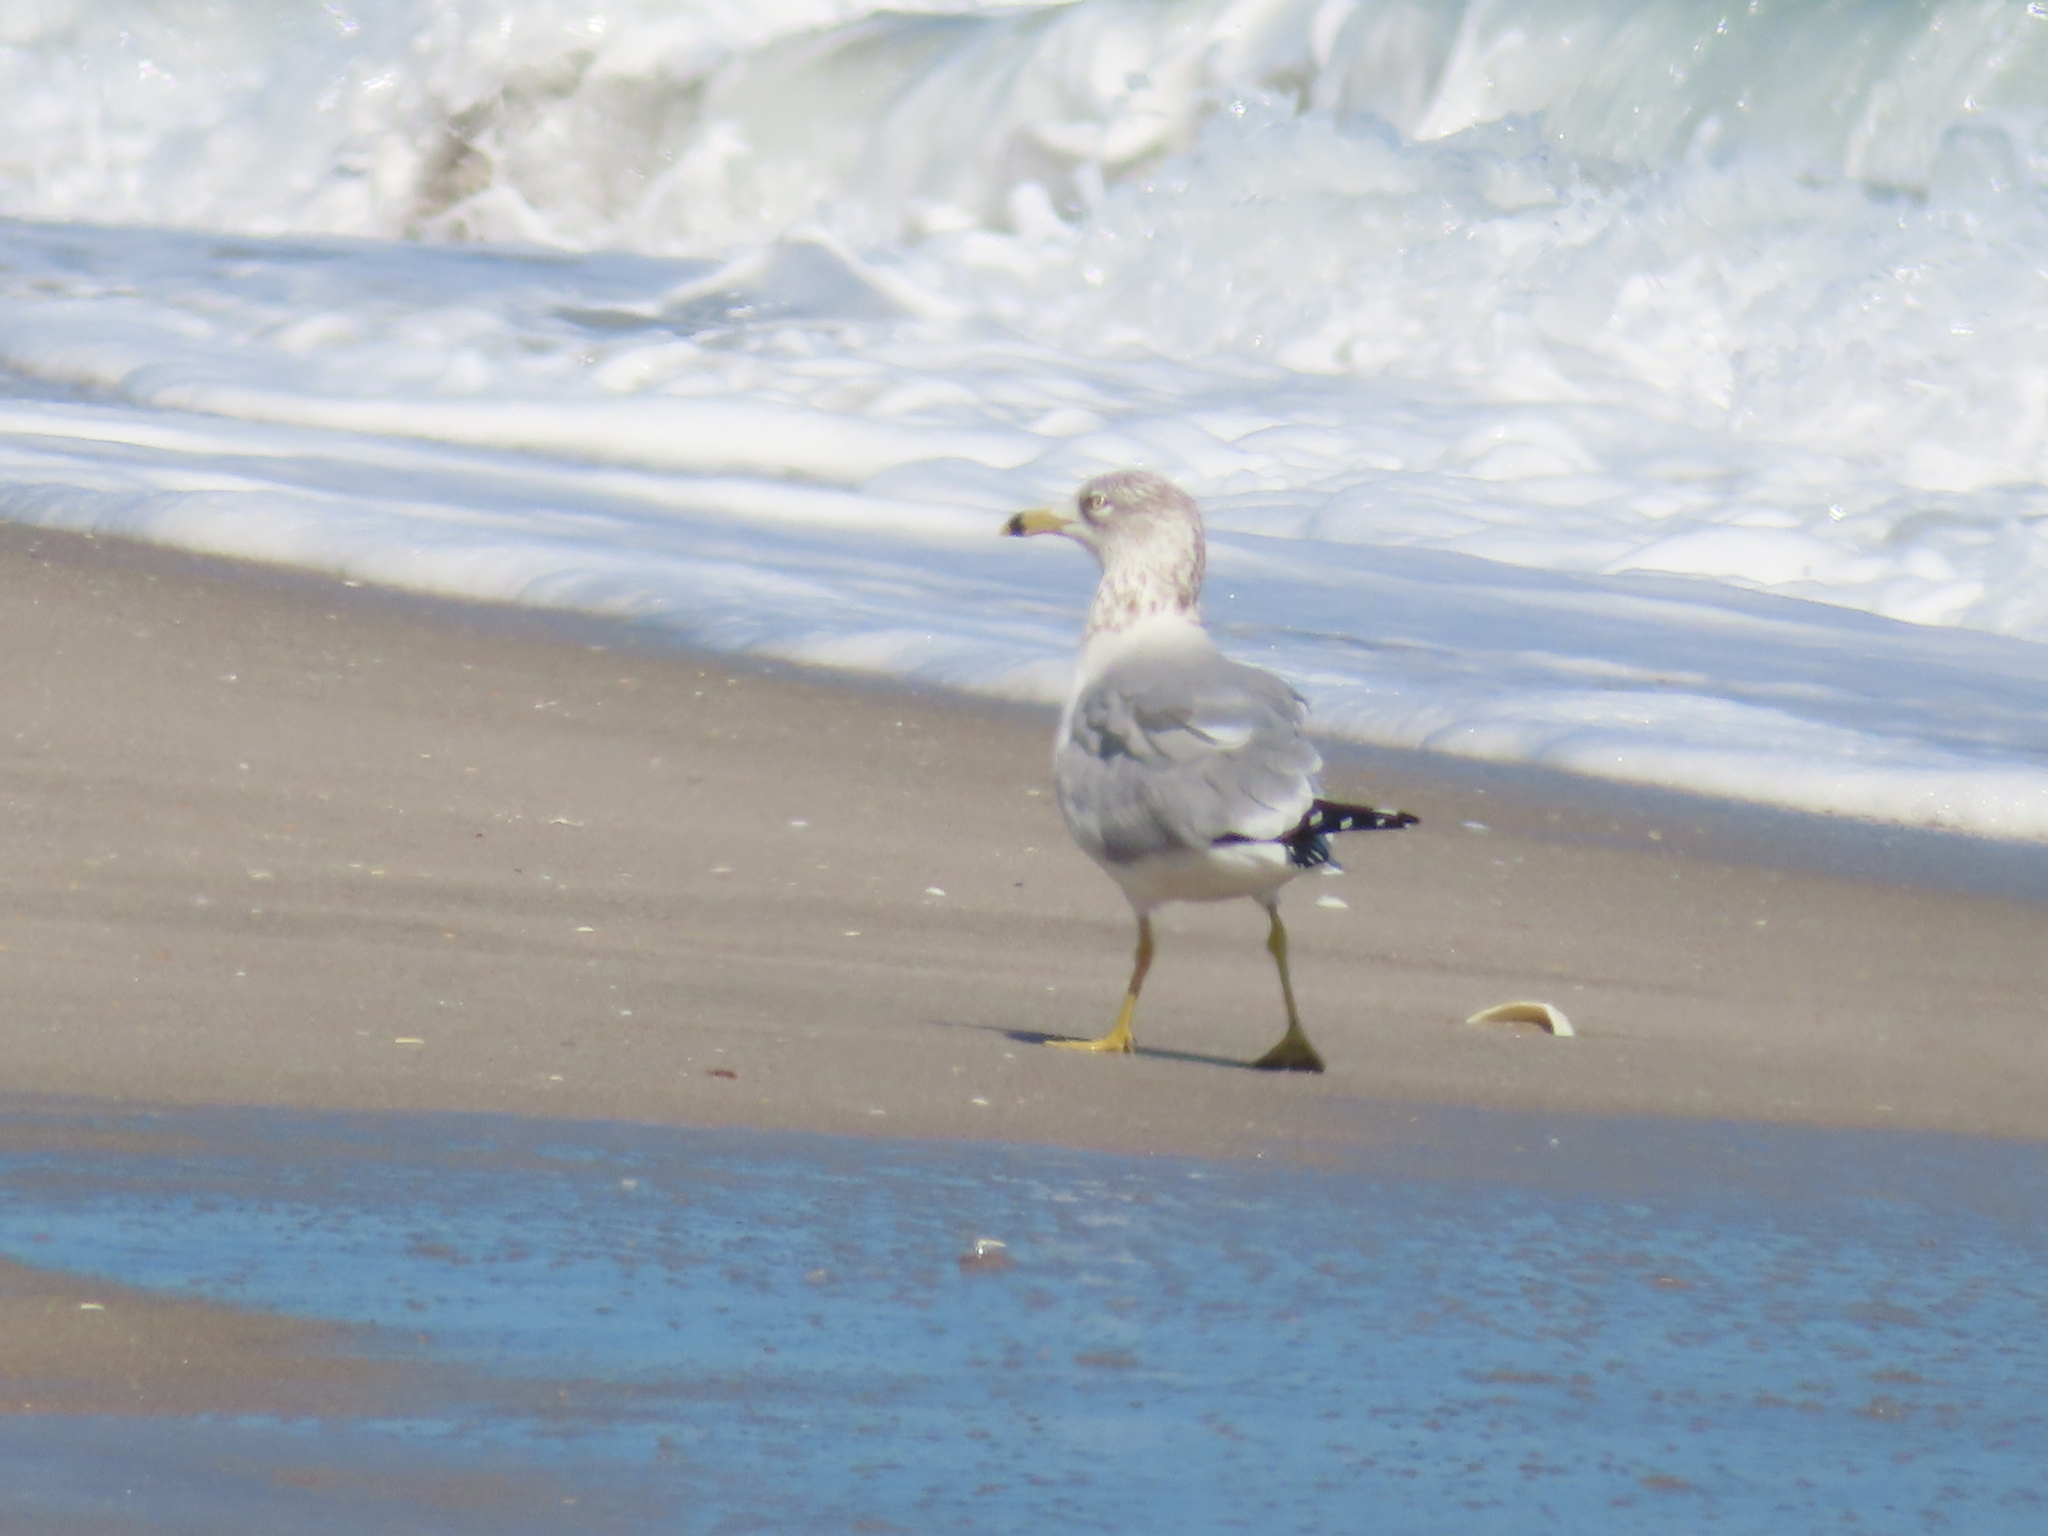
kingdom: Animalia
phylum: Chordata
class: Aves
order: Charadriiformes
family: Laridae
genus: Larus
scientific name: Larus delawarensis
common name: Ring-billed gull
